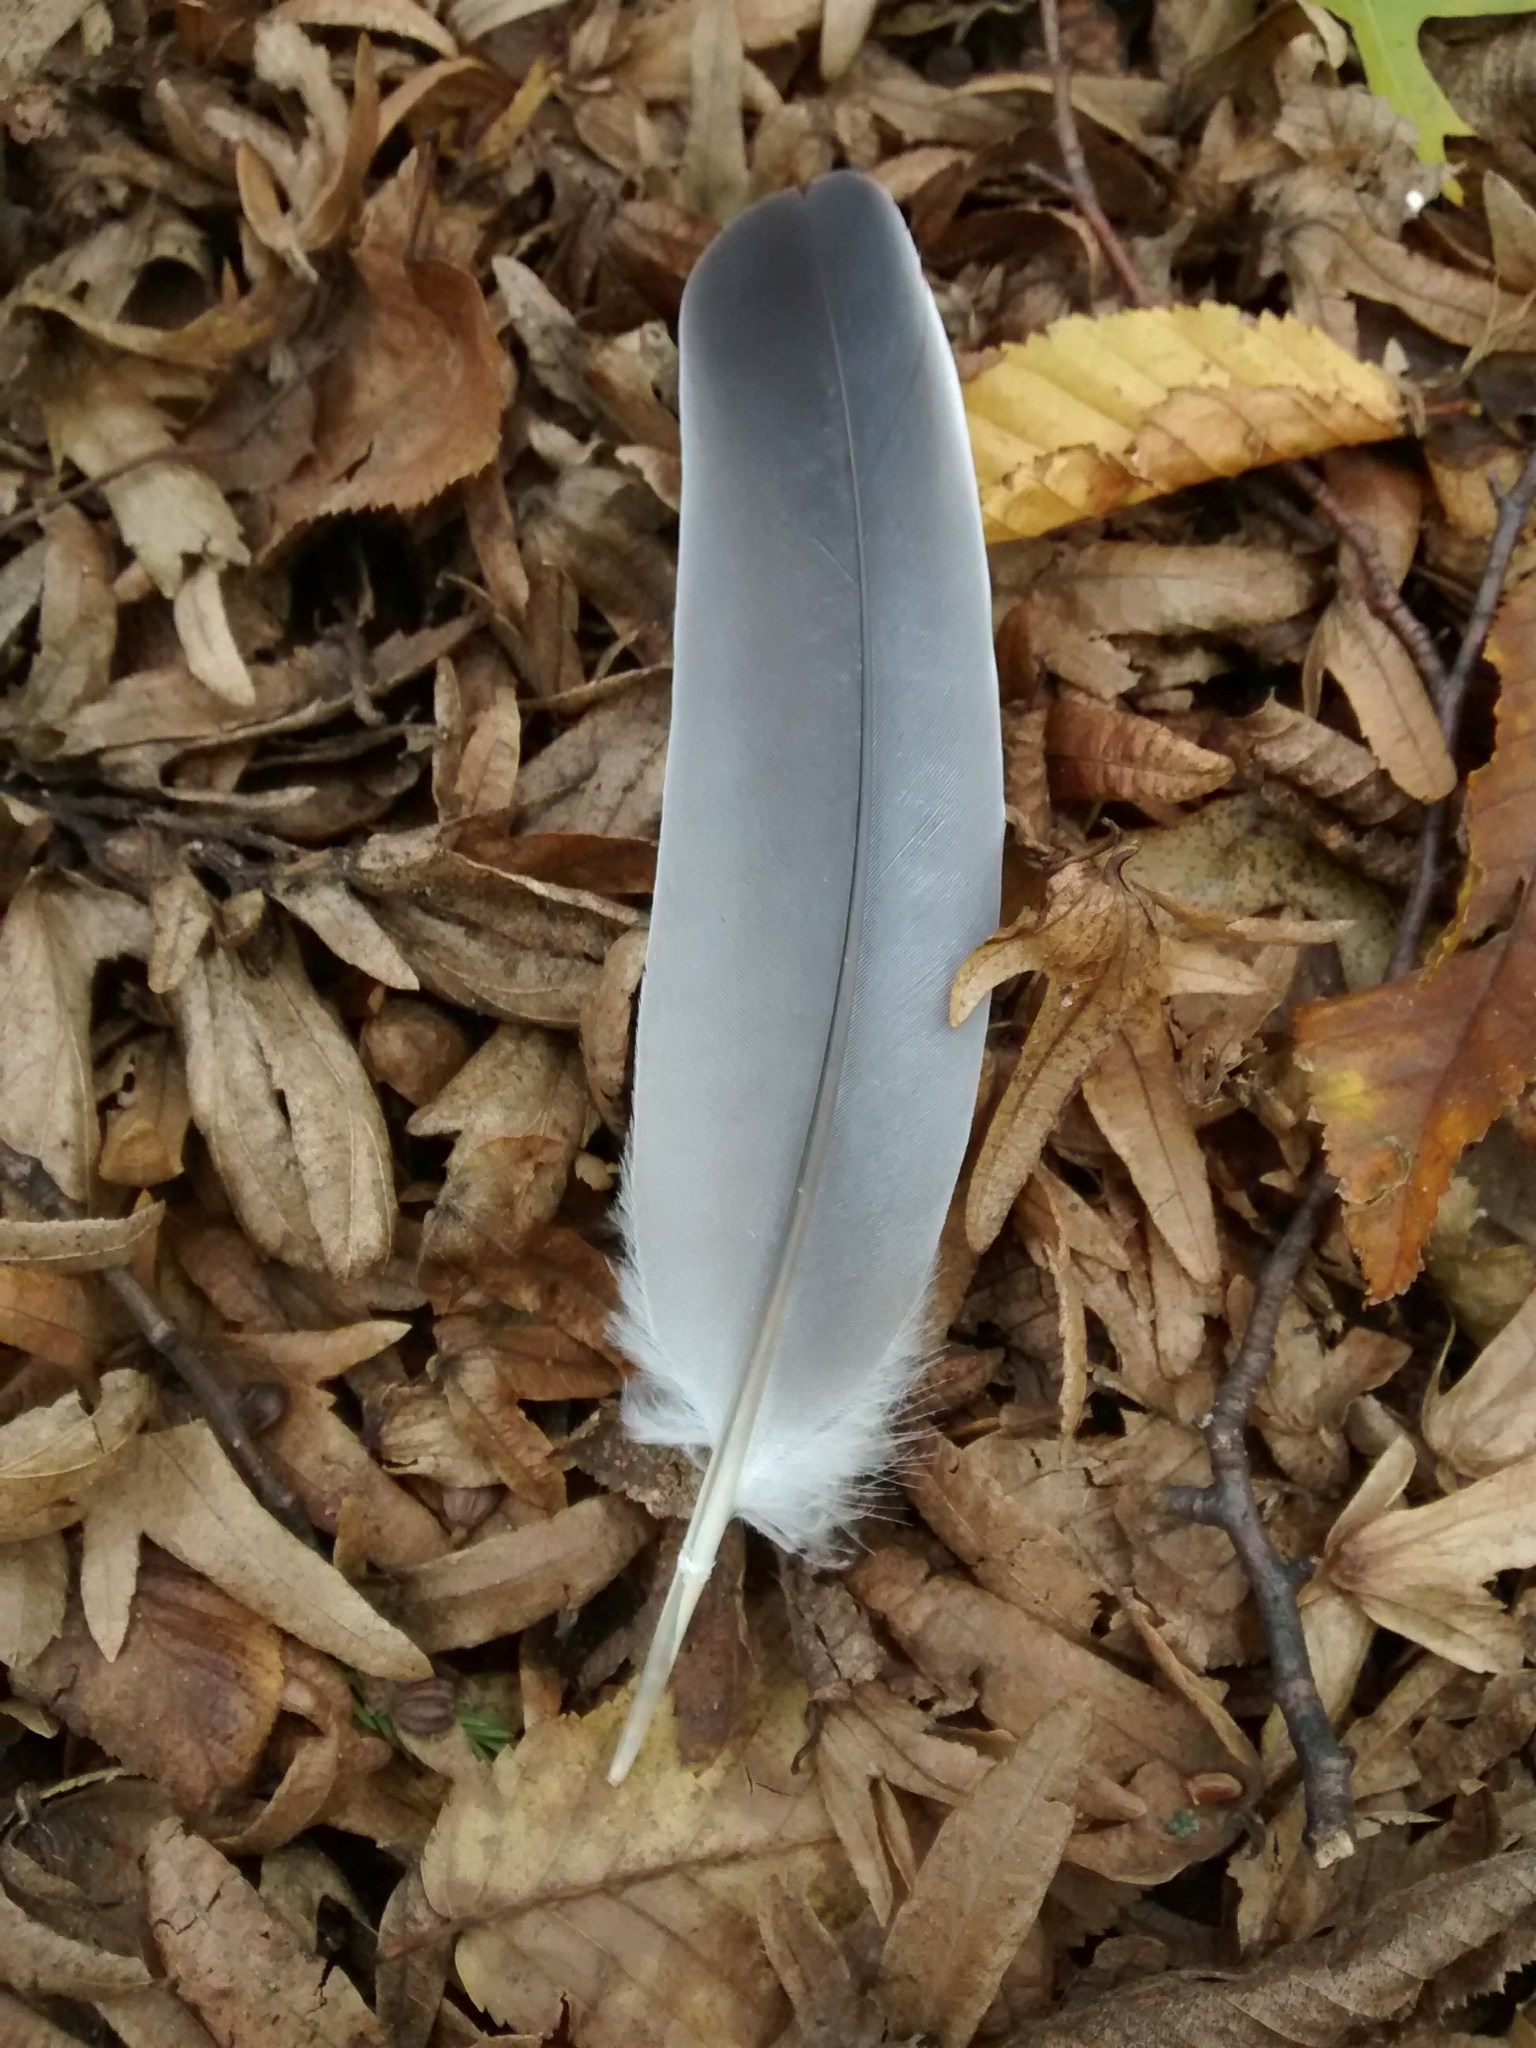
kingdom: Animalia
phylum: Chordata
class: Aves
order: Columbiformes
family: Columbidae
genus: Columba
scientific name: Columba palumbus
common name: Common wood pigeon
